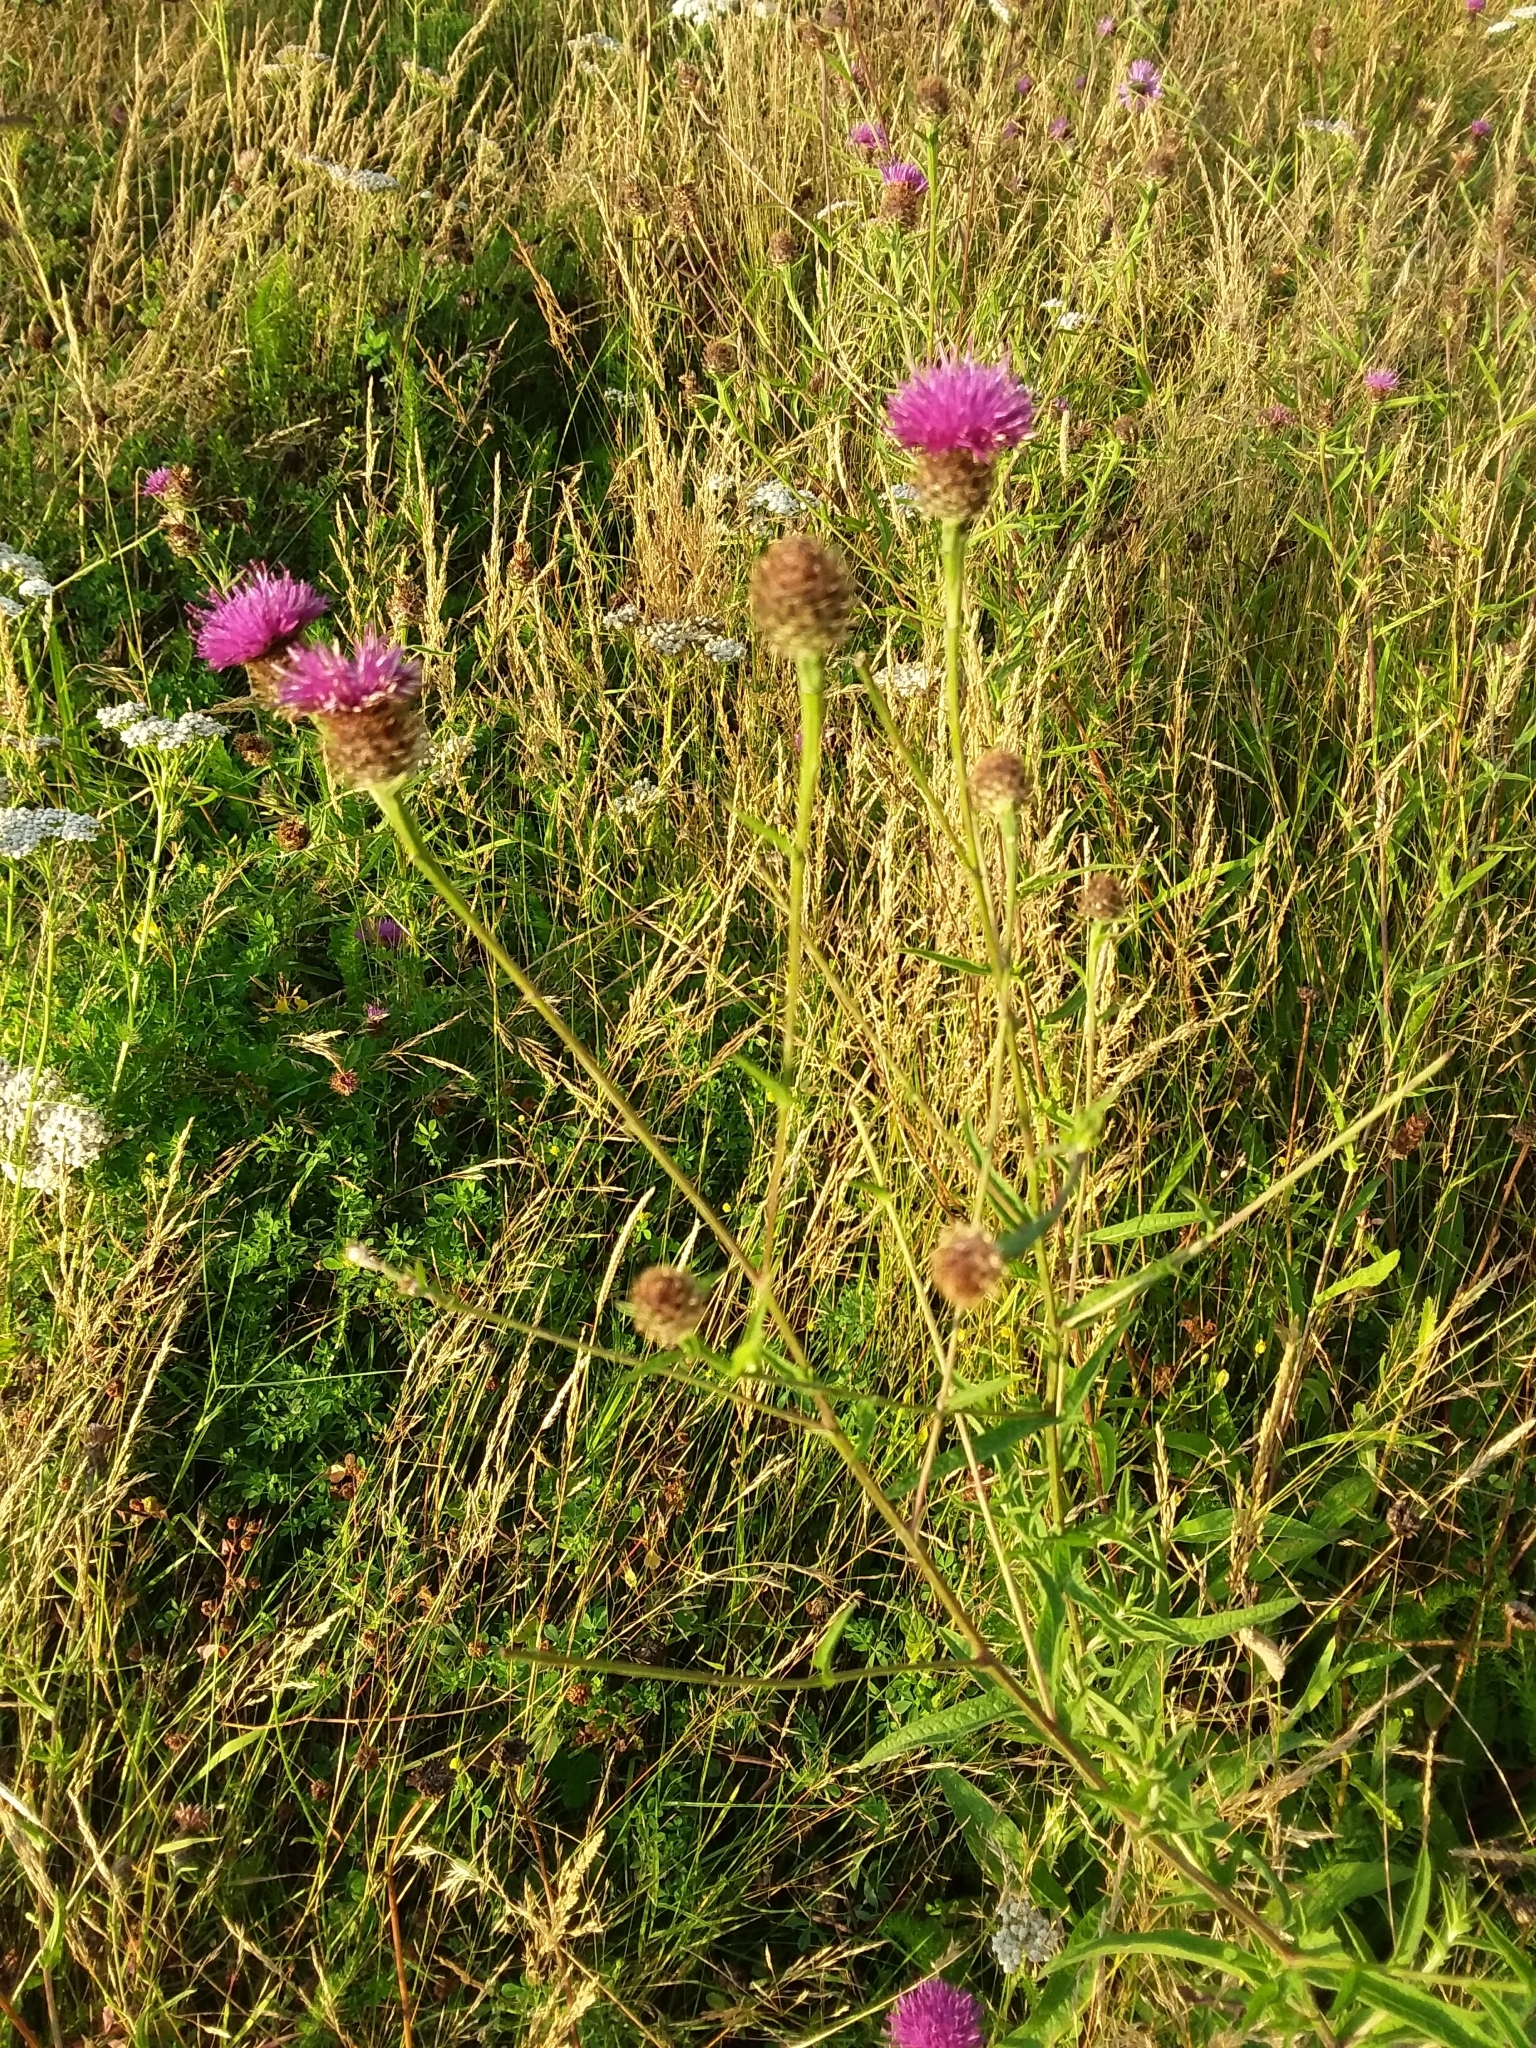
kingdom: Plantae
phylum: Tracheophyta
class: Magnoliopsida
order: Asterales
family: Asteraceae
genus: Centaurea
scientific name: Centaurea nigra
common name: Lesser knapweed
